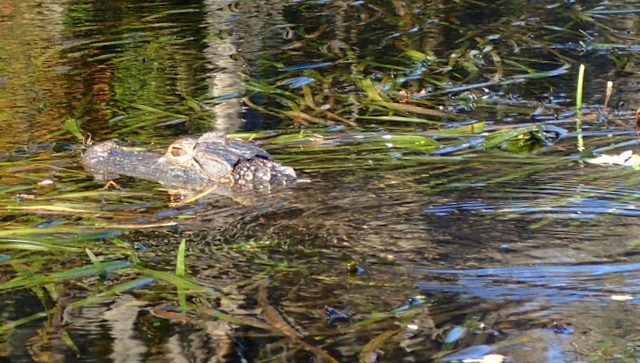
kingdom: Animalia
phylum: Chordata
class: Crocodylia
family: Alligatoridae
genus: Alligator
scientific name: Alligator mississippiensis
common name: American alligator
